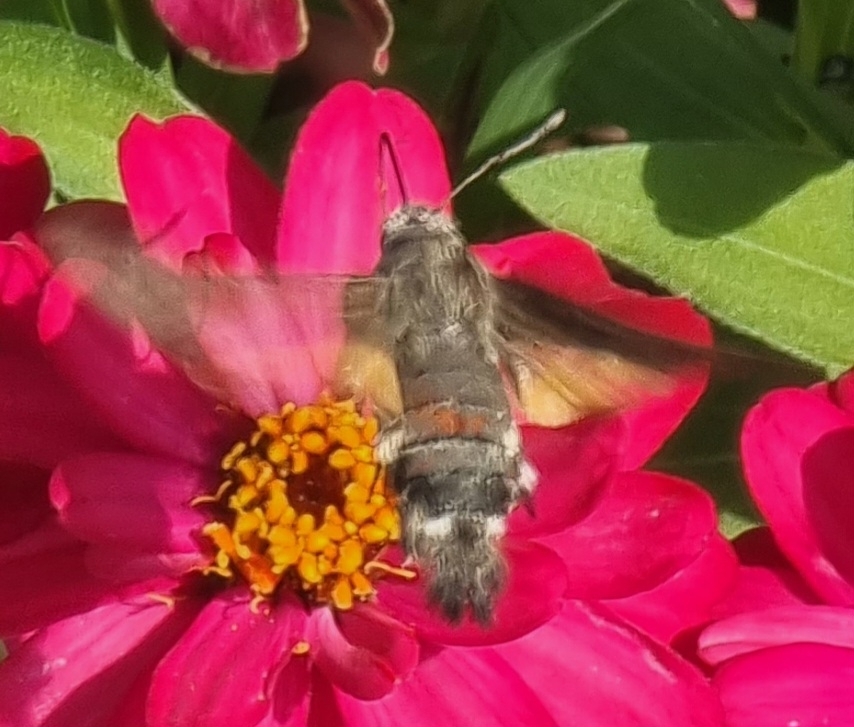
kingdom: Animalia
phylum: Arthropoda
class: Insecta
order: Lepidoptera
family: Sphingidae
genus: Macroglossum
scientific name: Macroglossum stellatarum
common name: Humming-bird hawk-moth
